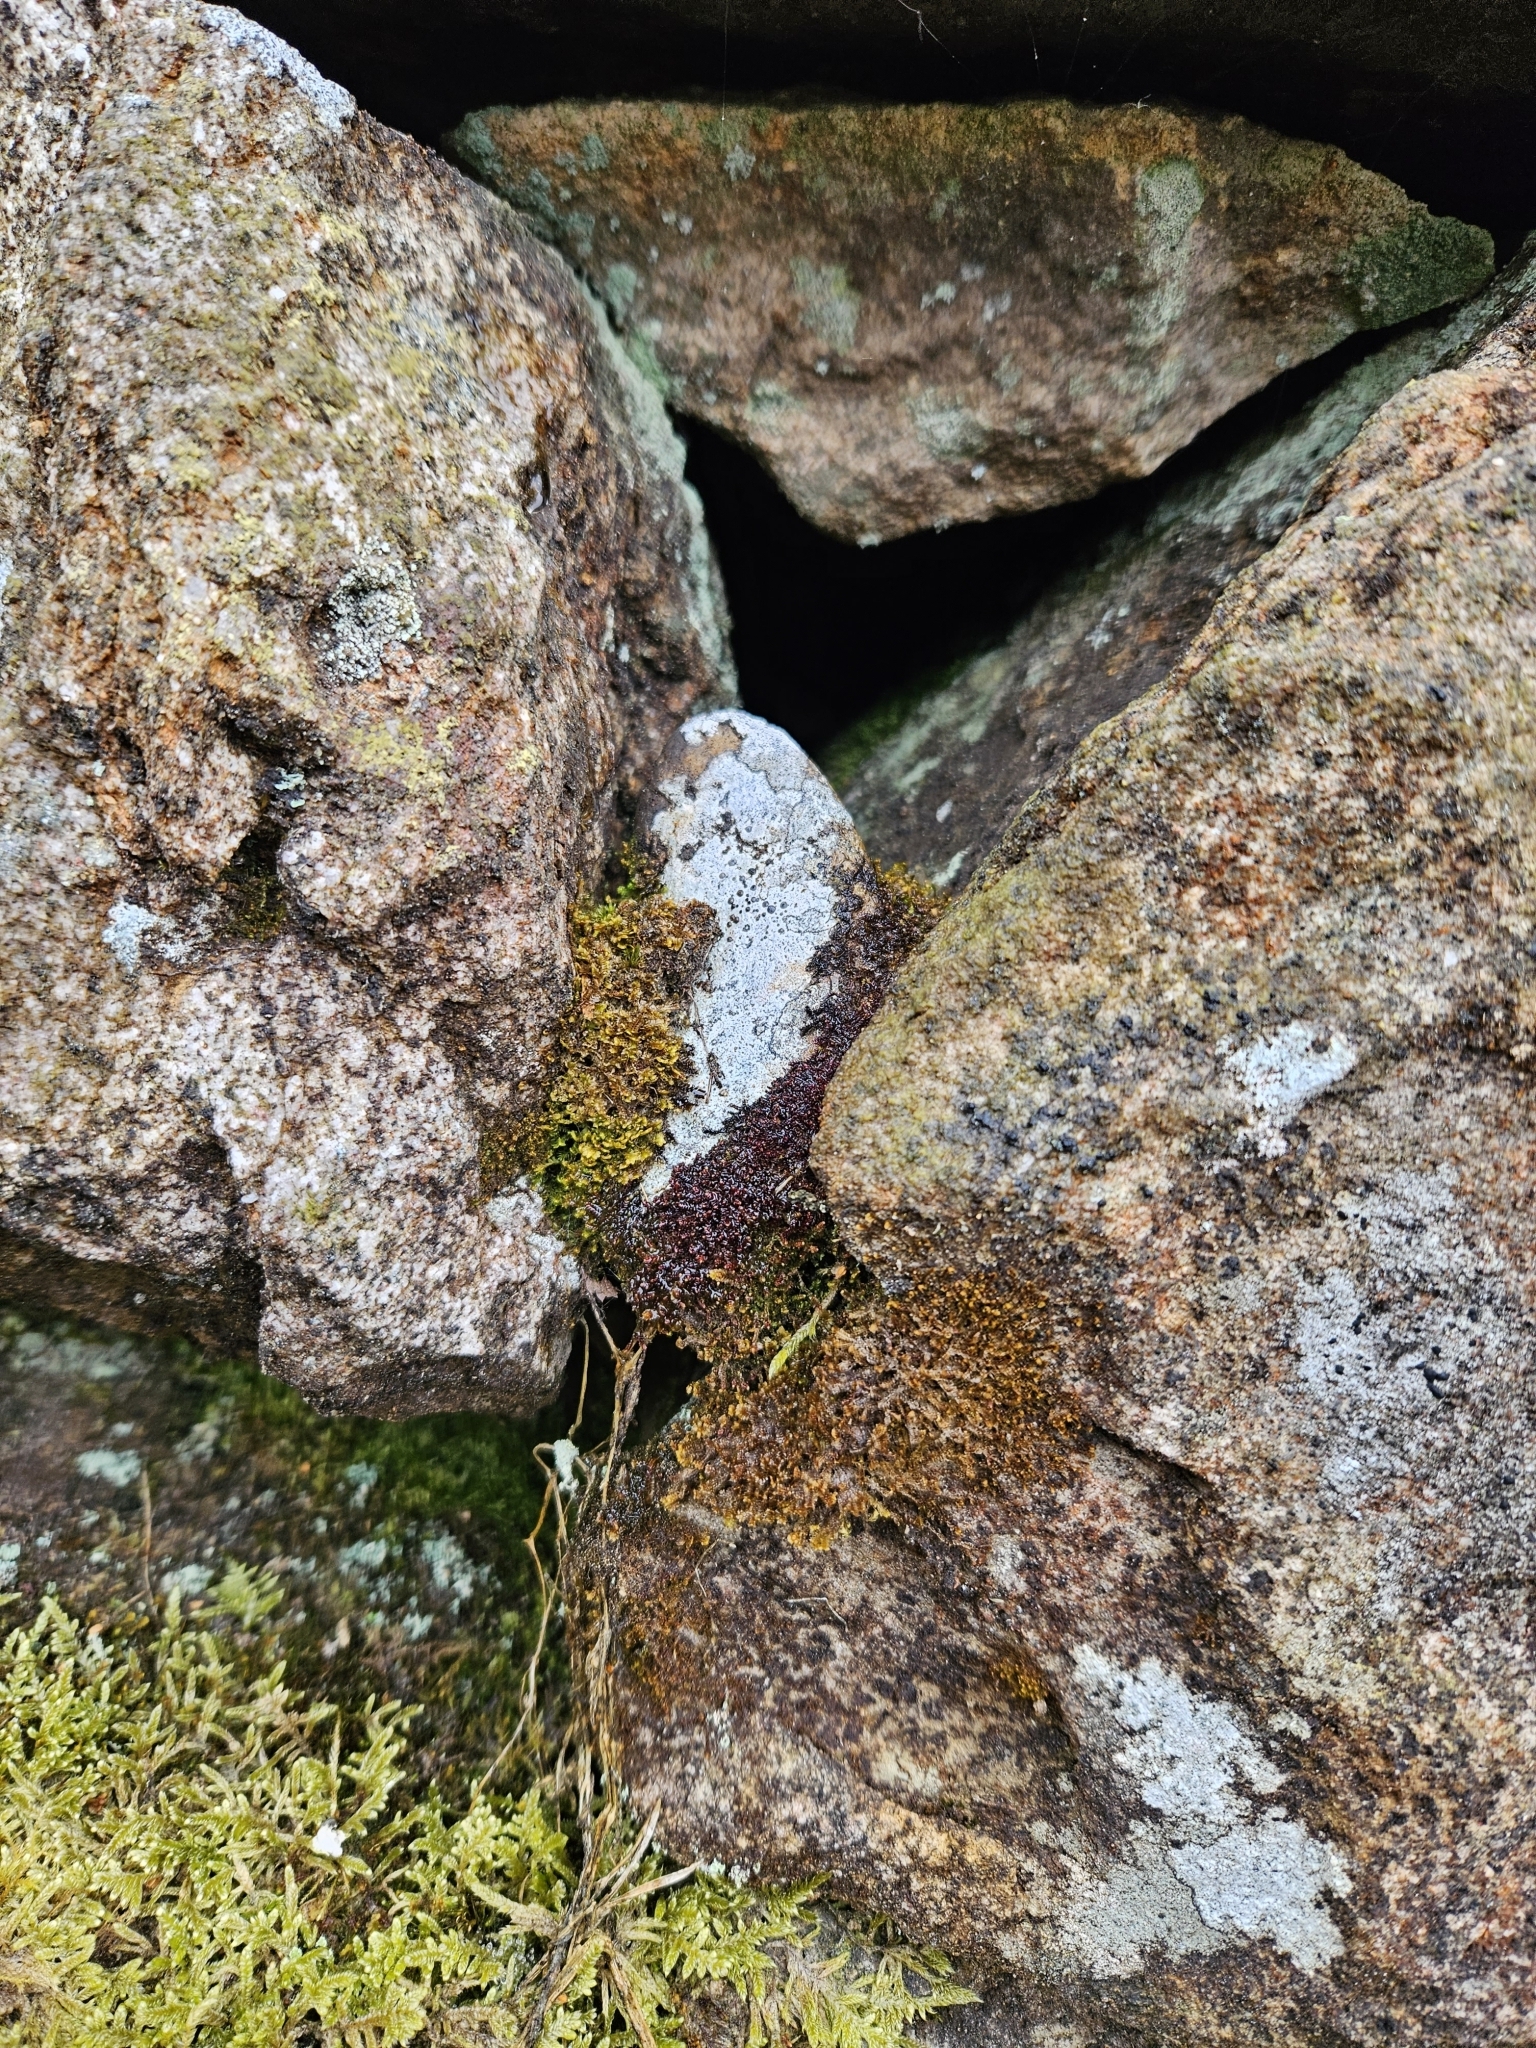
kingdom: Plantae
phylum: Marchantiophyta
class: Jungermanniopsida
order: Jungermanniales
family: Gymnomitriaceae
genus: Marsupella
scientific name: Marsupella emarginata
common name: Notched rustwort
